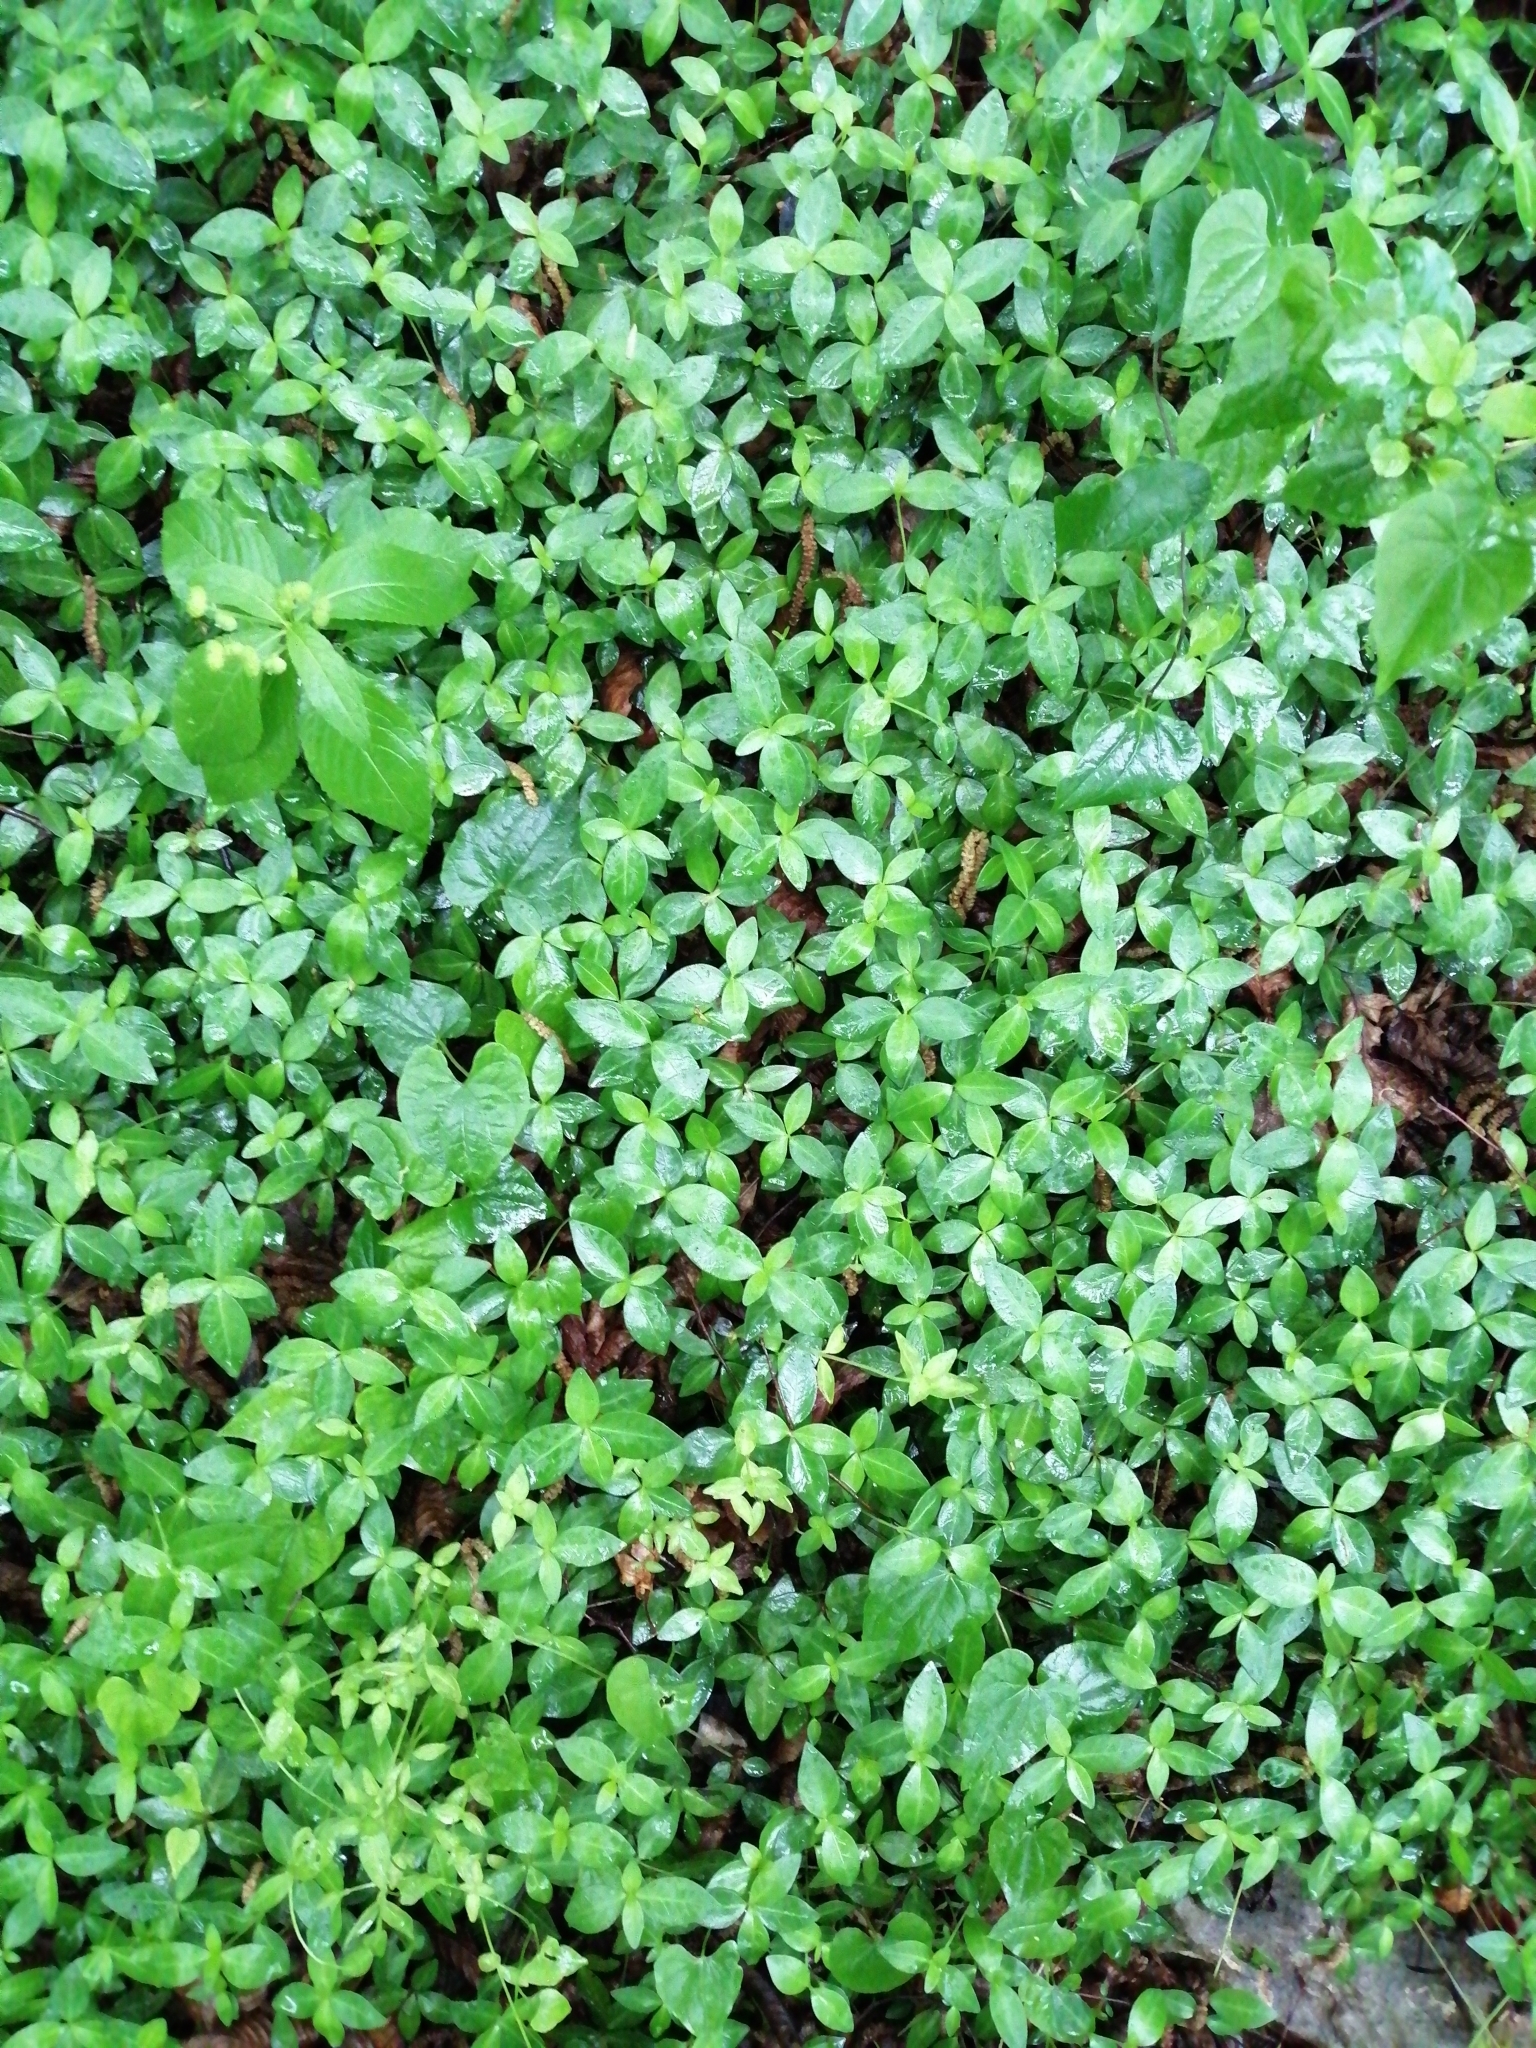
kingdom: Plantae
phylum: Tracheophyta
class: Magnoliopsida
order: Gentianales
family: Apocynaceae
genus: Vinca
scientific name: Vinca minor
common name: Lesser periwinkle
